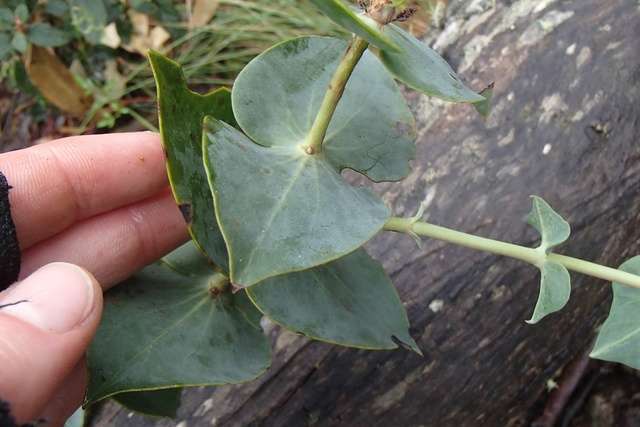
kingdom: Plantae
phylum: Tracheophyta
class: Magnoliopsida
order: Lamiales
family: Plantaginaceae
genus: Veronica
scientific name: Veronica perfoliata
